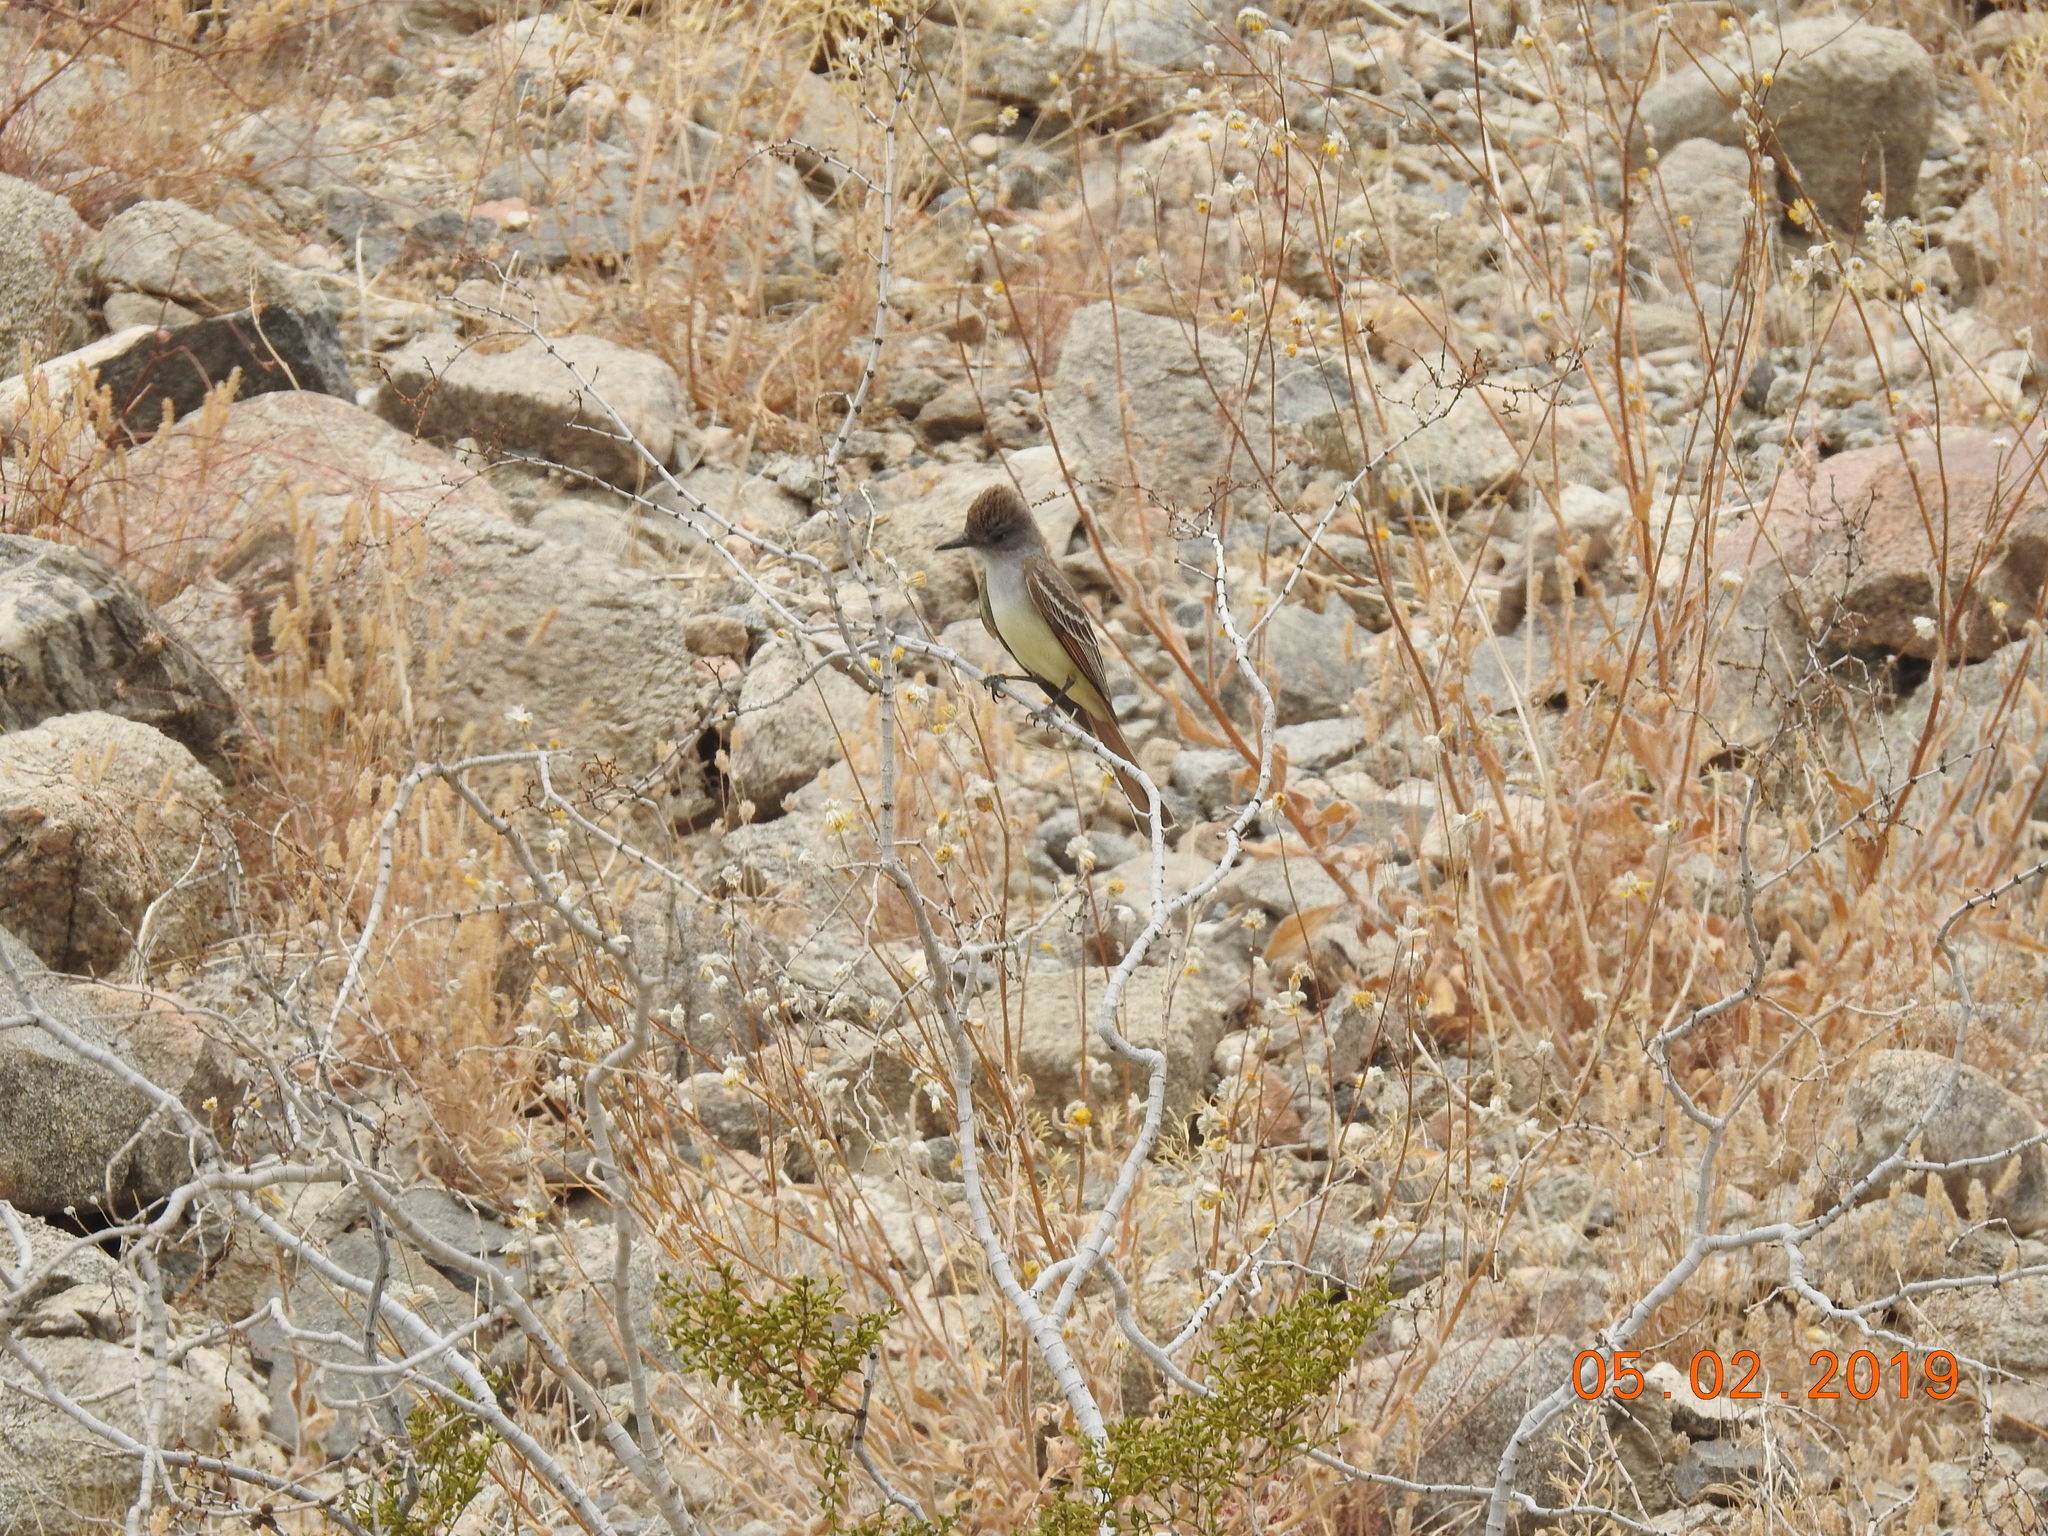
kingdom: Animalia
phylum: Chordata
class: Aves
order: Passeriformes
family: Tyrannidae
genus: Myiarchus
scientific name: Myiarchus cinerascens
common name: Ash-throated flycatcher
